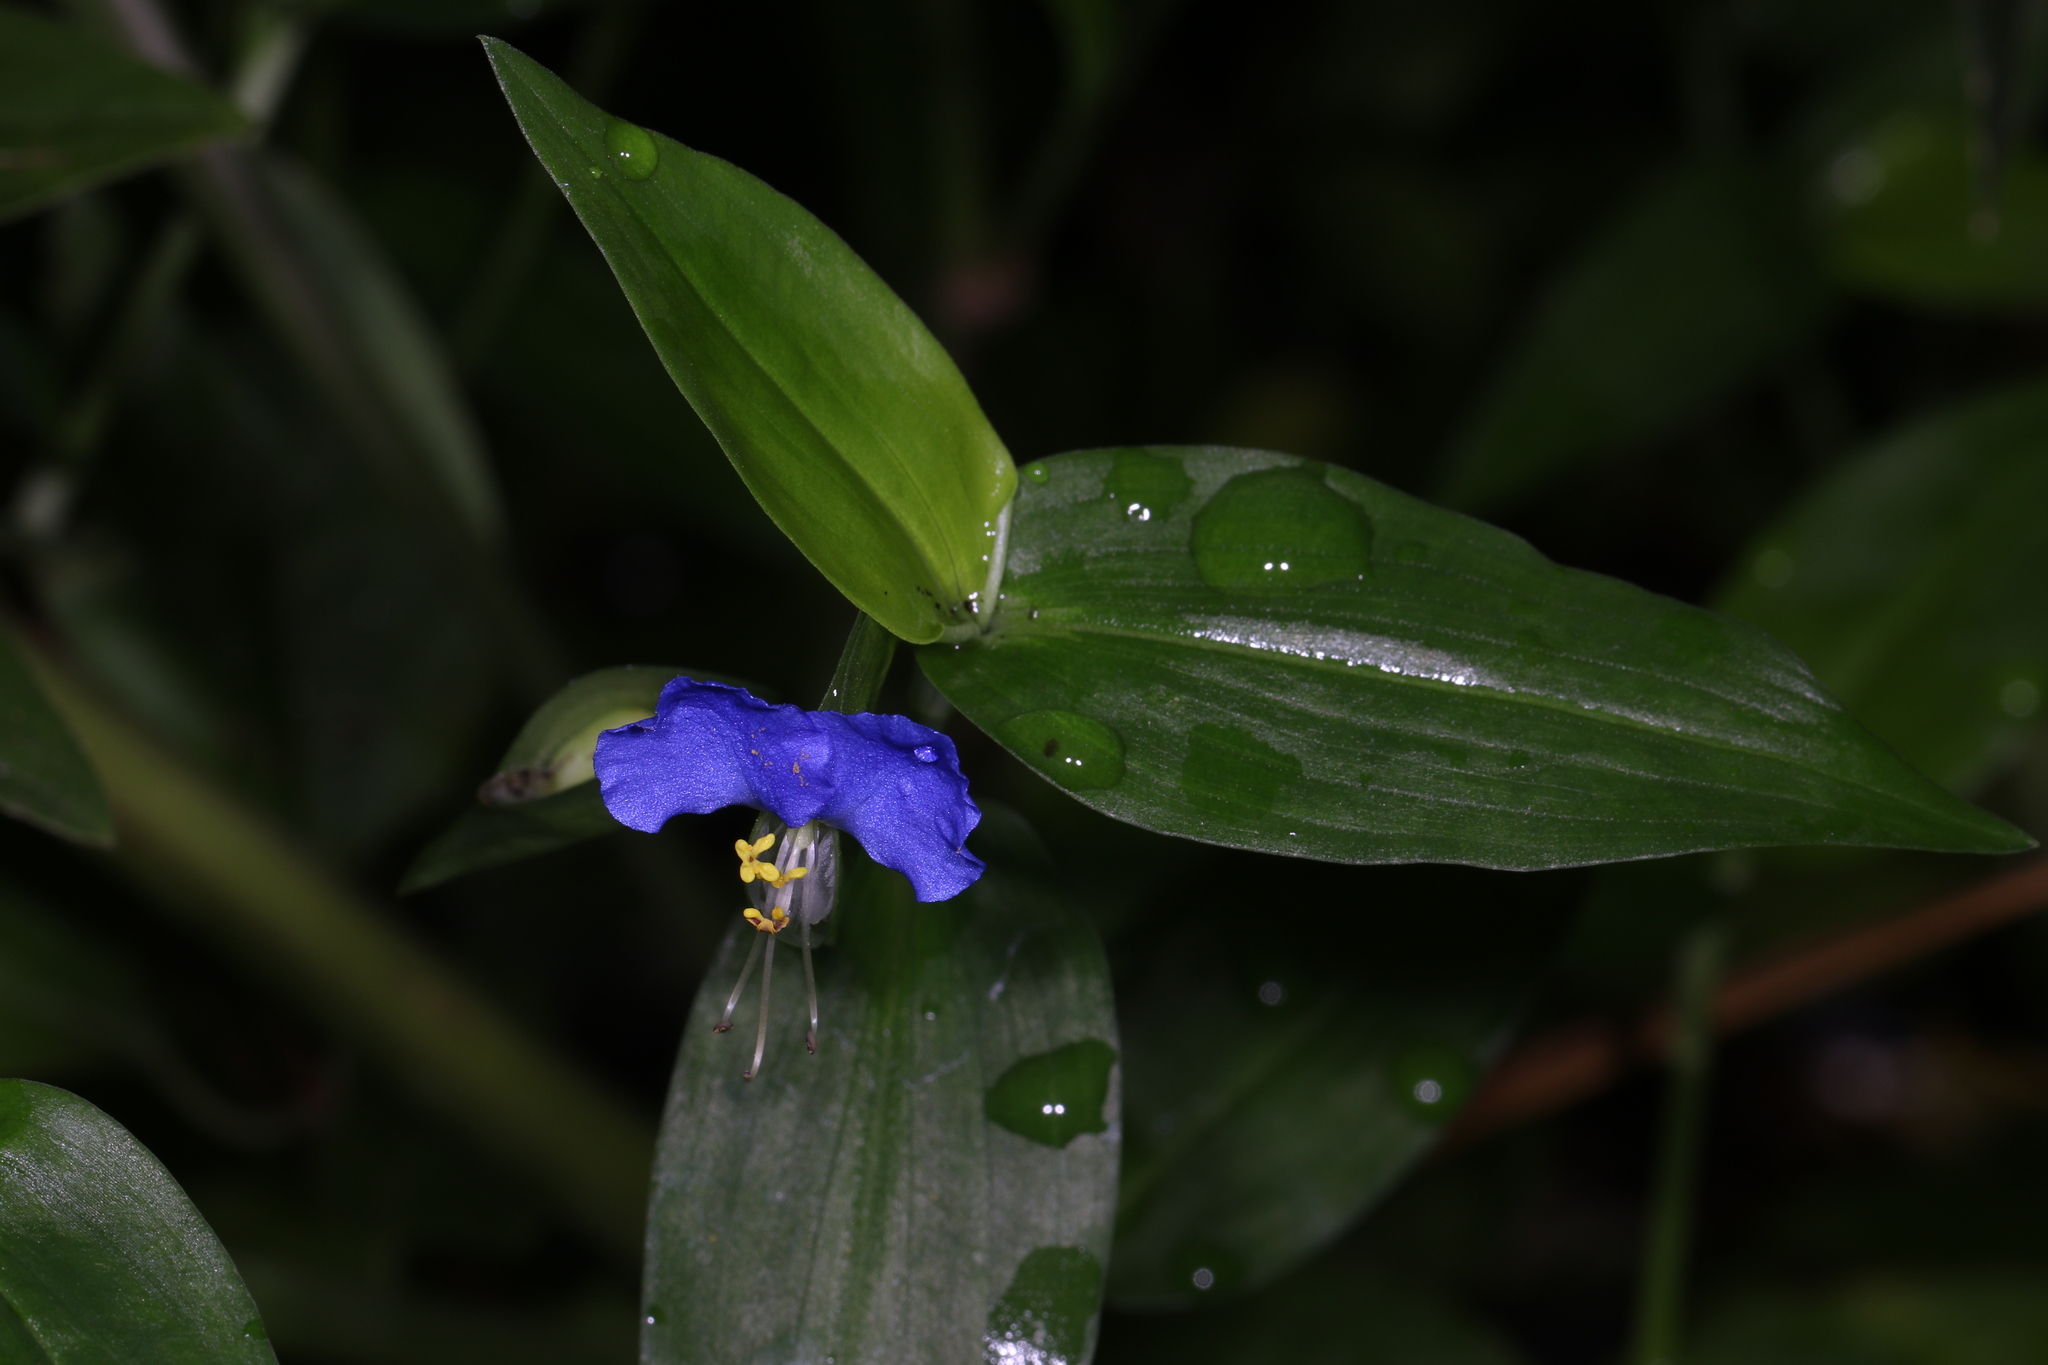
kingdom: Plantae
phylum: Tracheophyta
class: Liliopsida
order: Commelinales
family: Commelinaceae
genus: Commelina
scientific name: Commelina communis
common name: Asiatic dayflower
